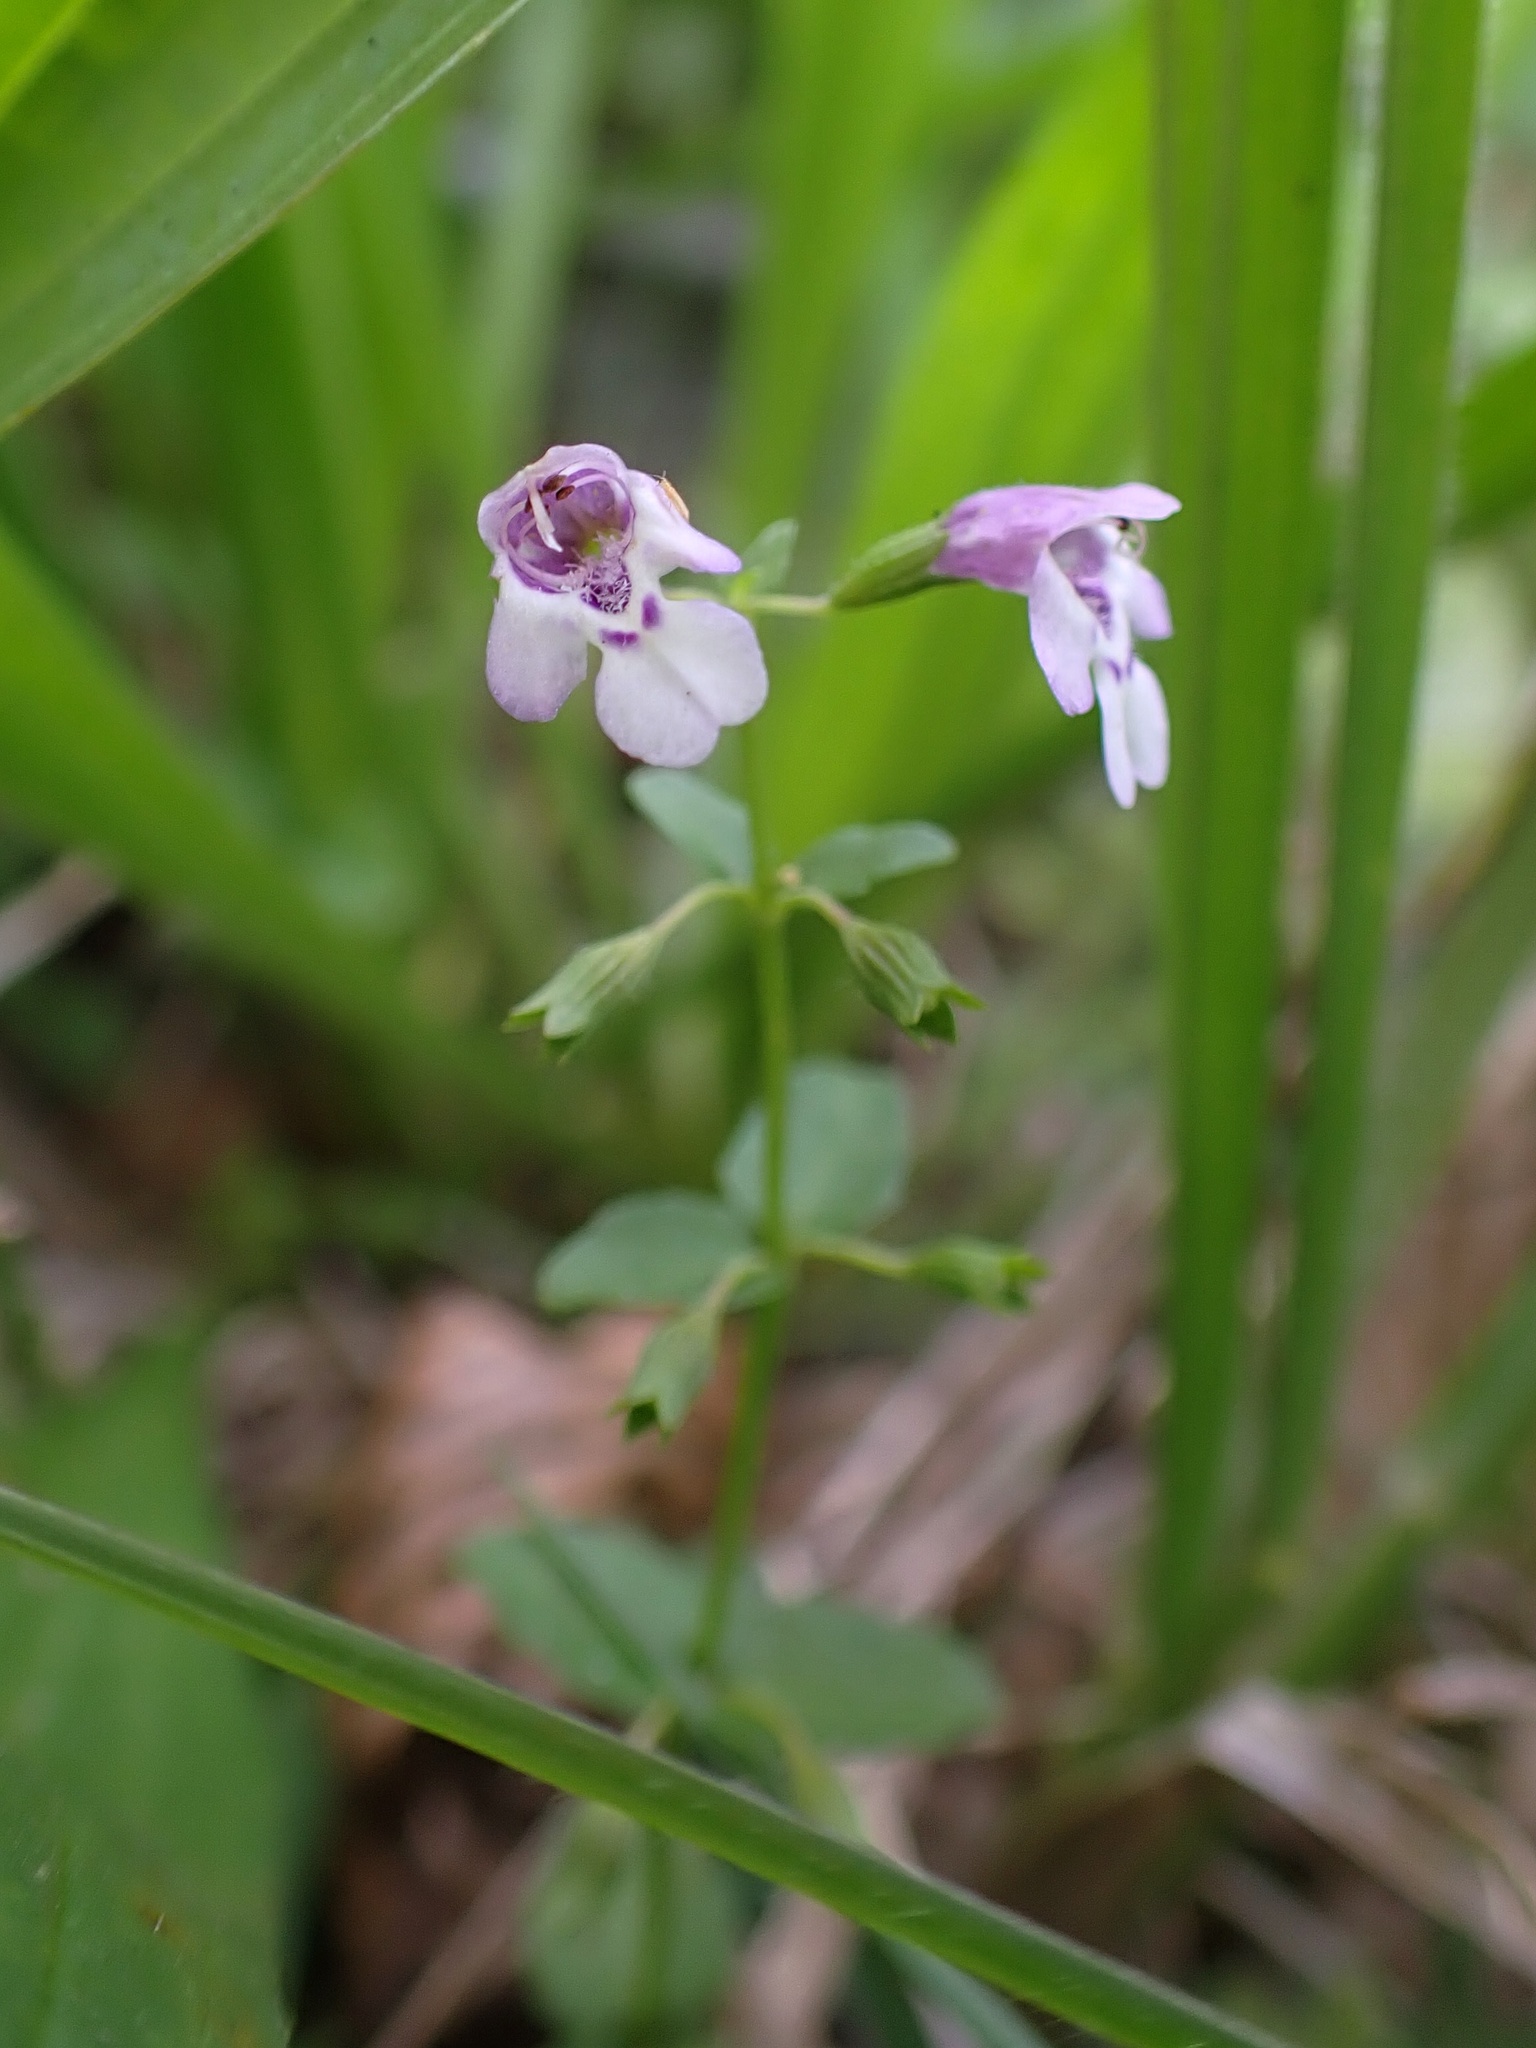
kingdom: Plantae
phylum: Tracheophyta
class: Magnoliopsida
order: Lamiales
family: Lamiaceae
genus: Clinopodium
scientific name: Clinopodium brownei
